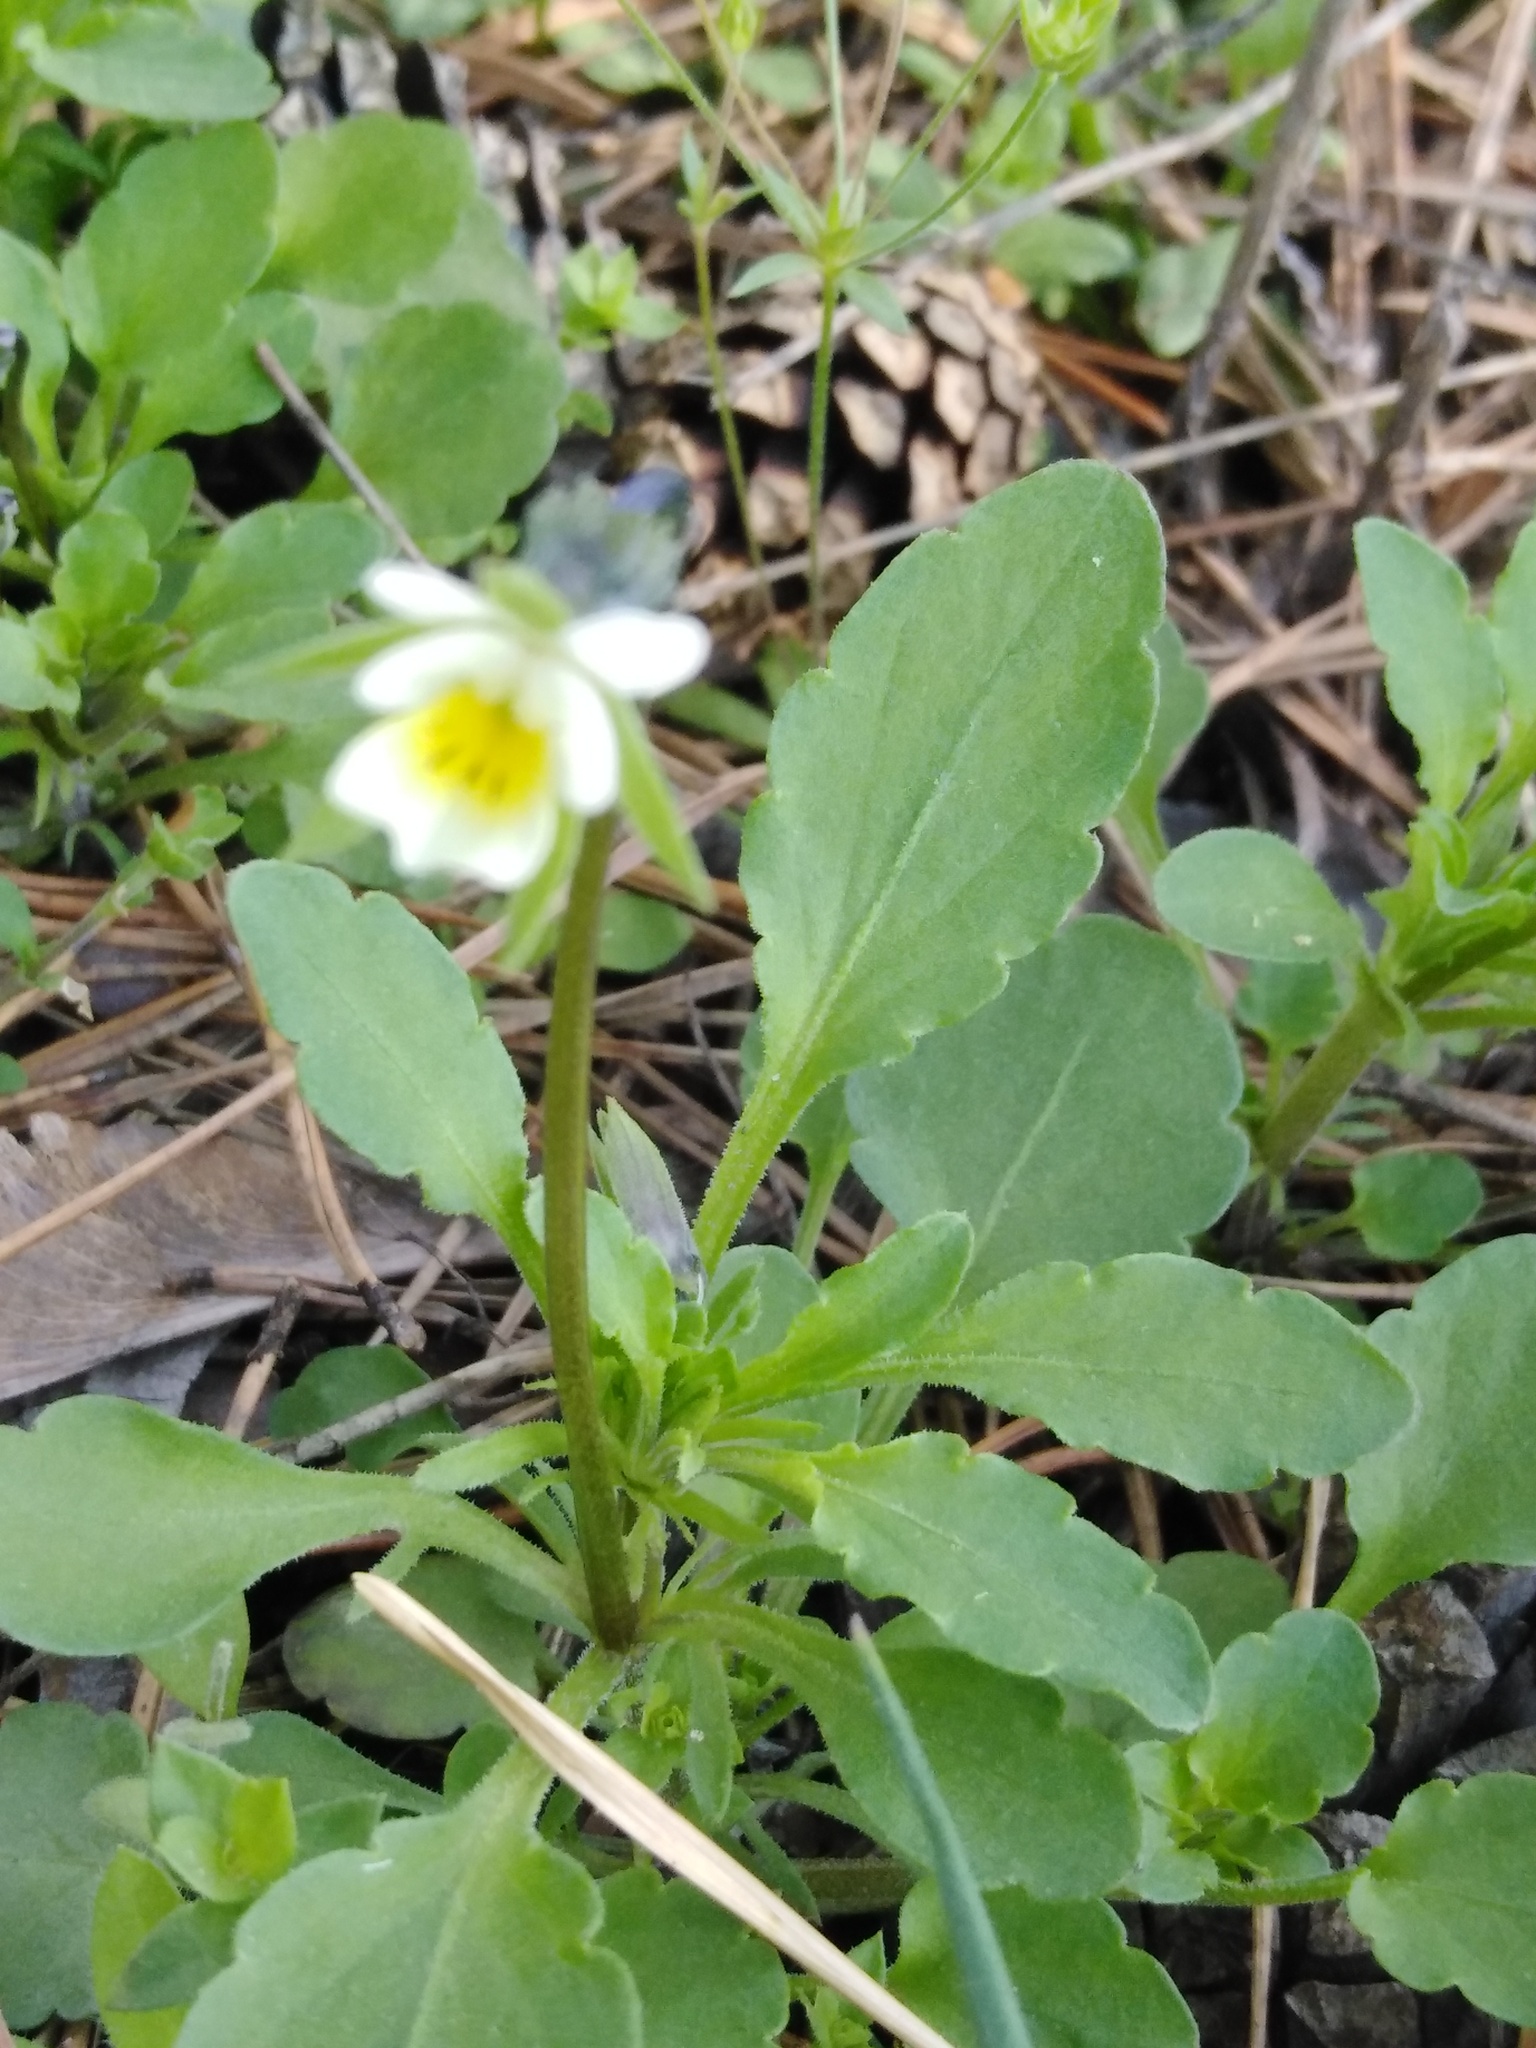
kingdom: Plantae
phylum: Tracheophyta
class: Magnoliopsida
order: Malpighiales
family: Violaceae
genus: Viola
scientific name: Viola arvensis
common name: Field pansy
